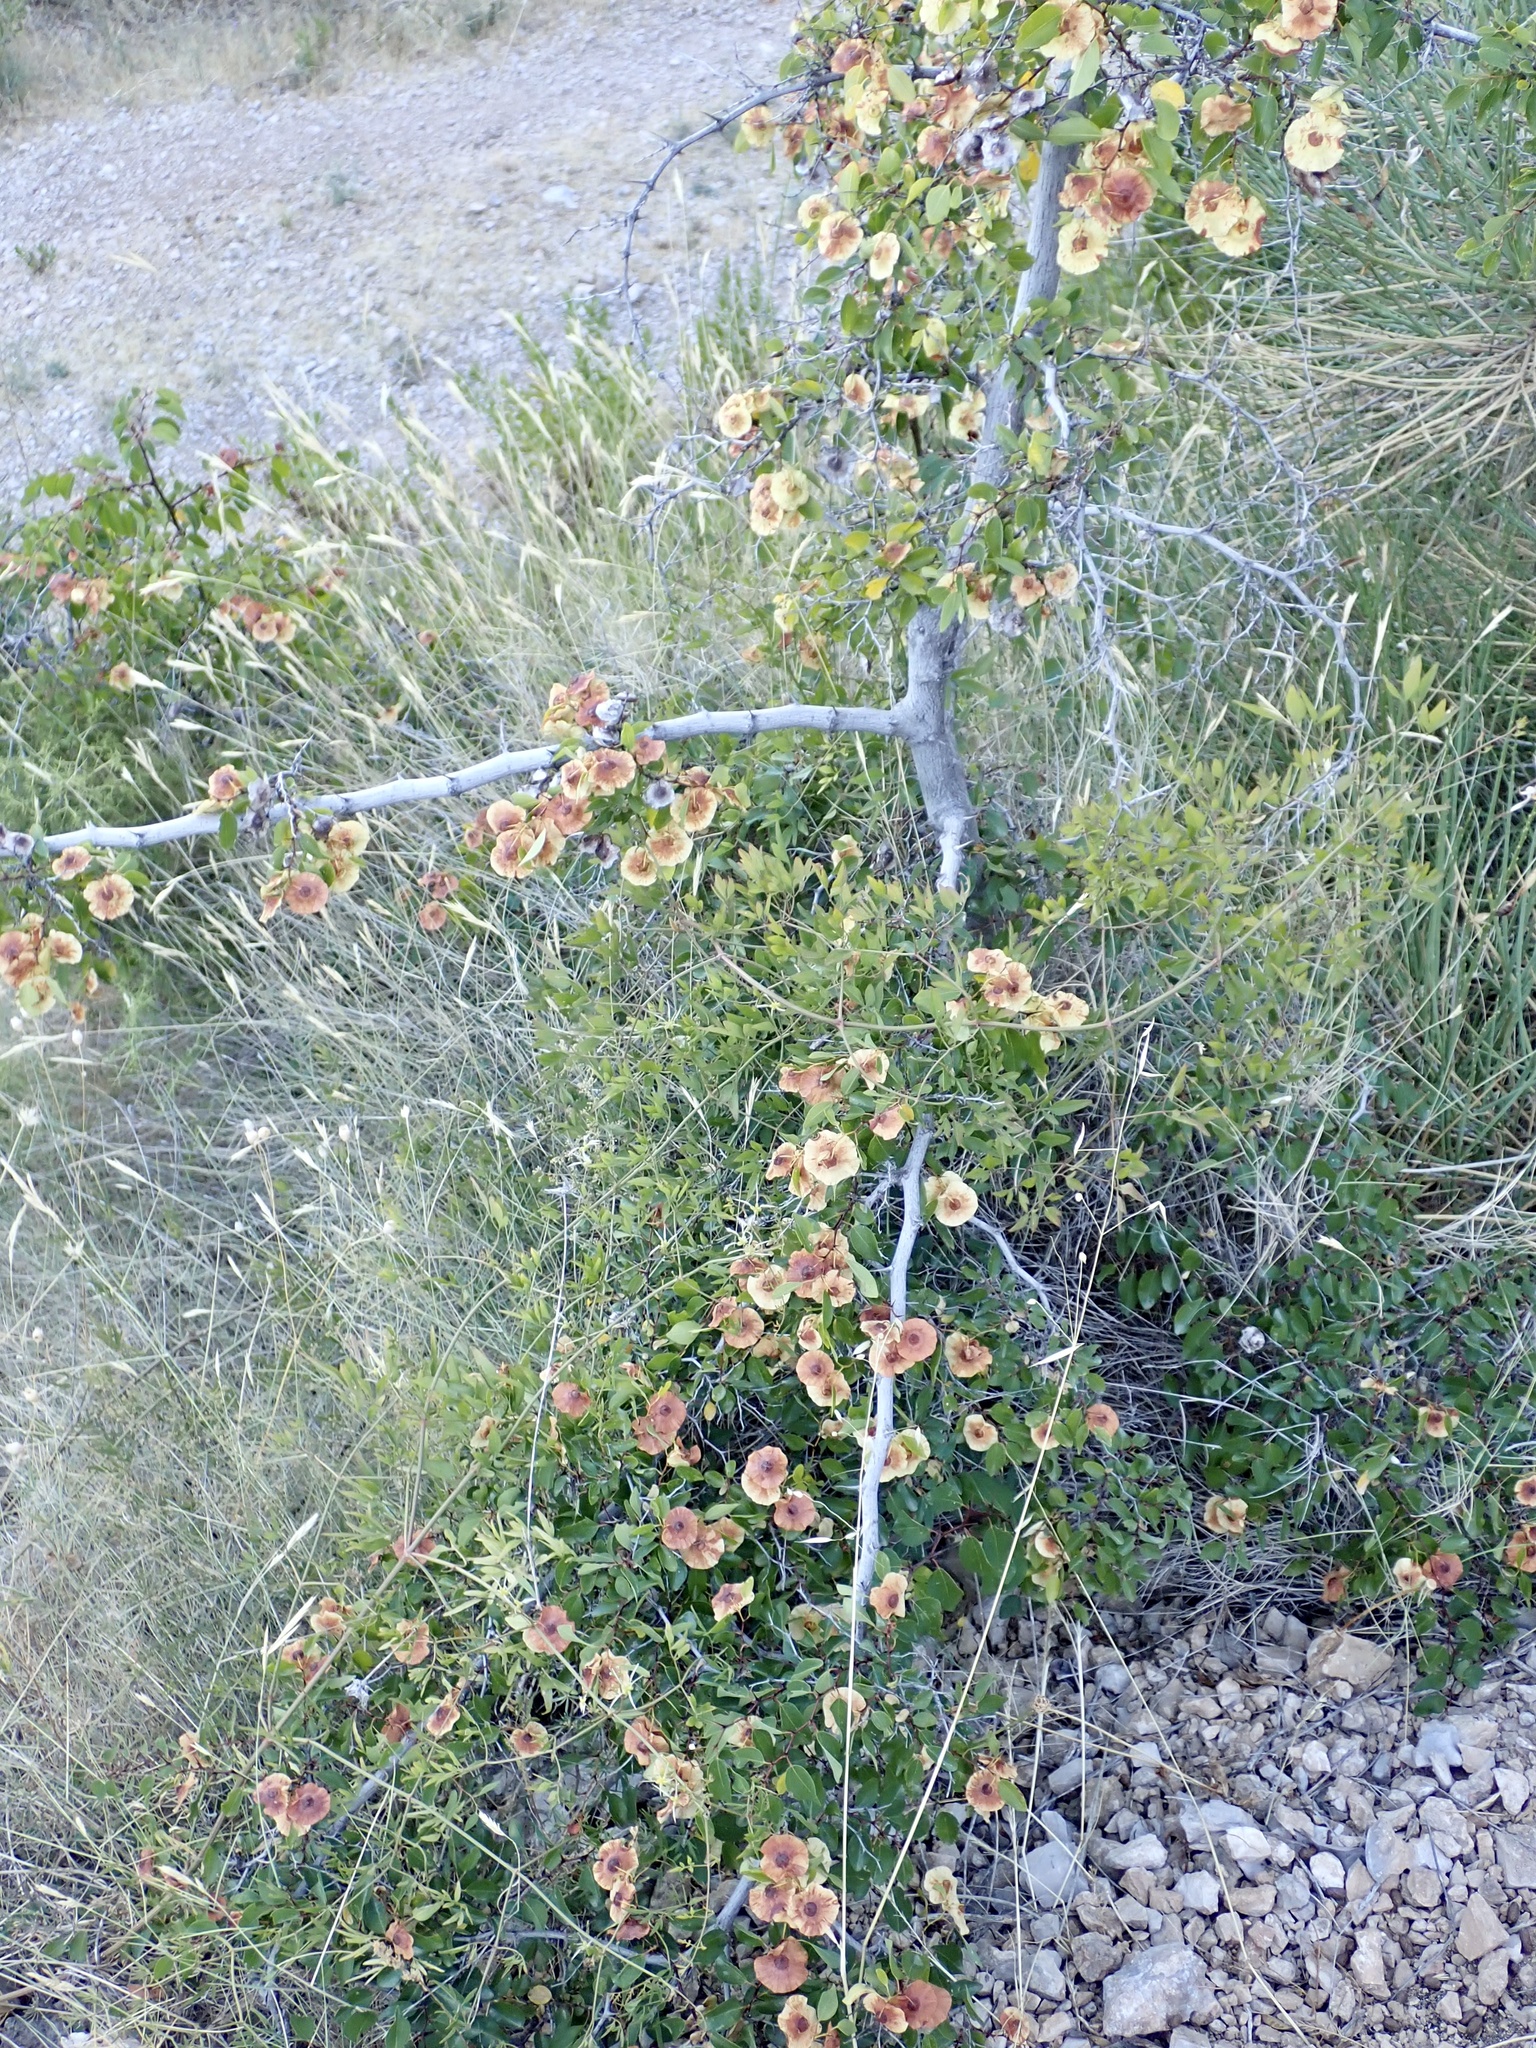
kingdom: Plantae
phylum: Tracheophyta
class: Magnoliopsida
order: Rosales
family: Rhamnaceae
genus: Paliurus
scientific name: Paliurus spina-christi
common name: Jeruselem thorn
